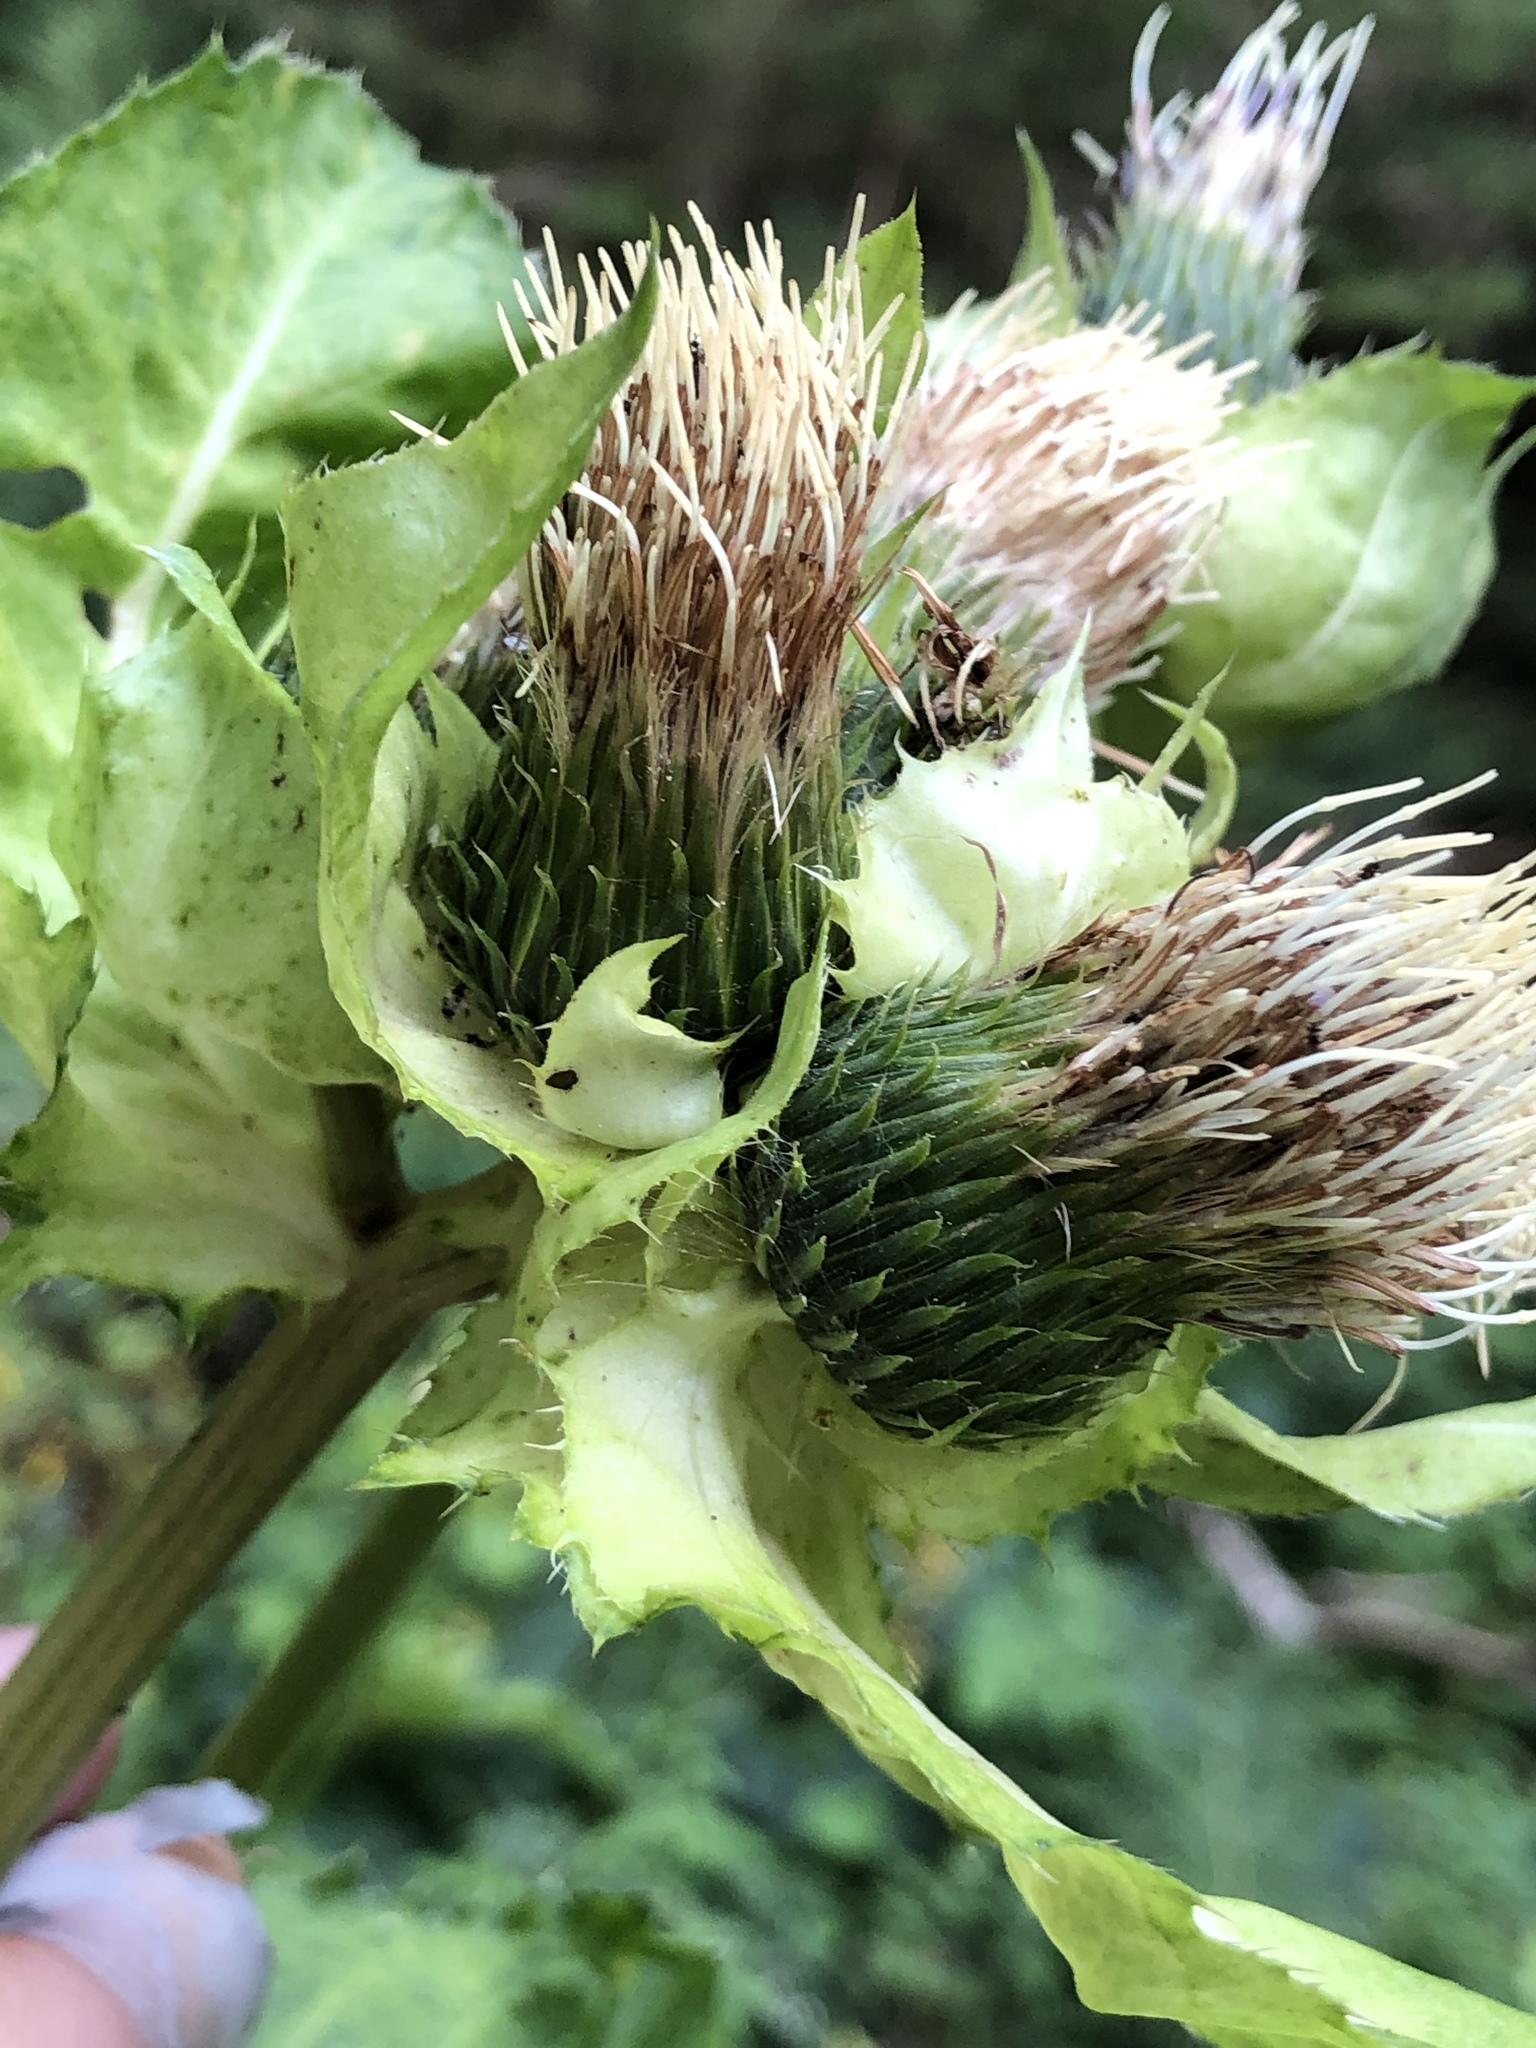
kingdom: Plantae
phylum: Tracheophyta
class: Magnoliopsida
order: Asterales
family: Asteraceae
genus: Cirsium
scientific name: Cirsium oleraceum
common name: Cabbage thistle
